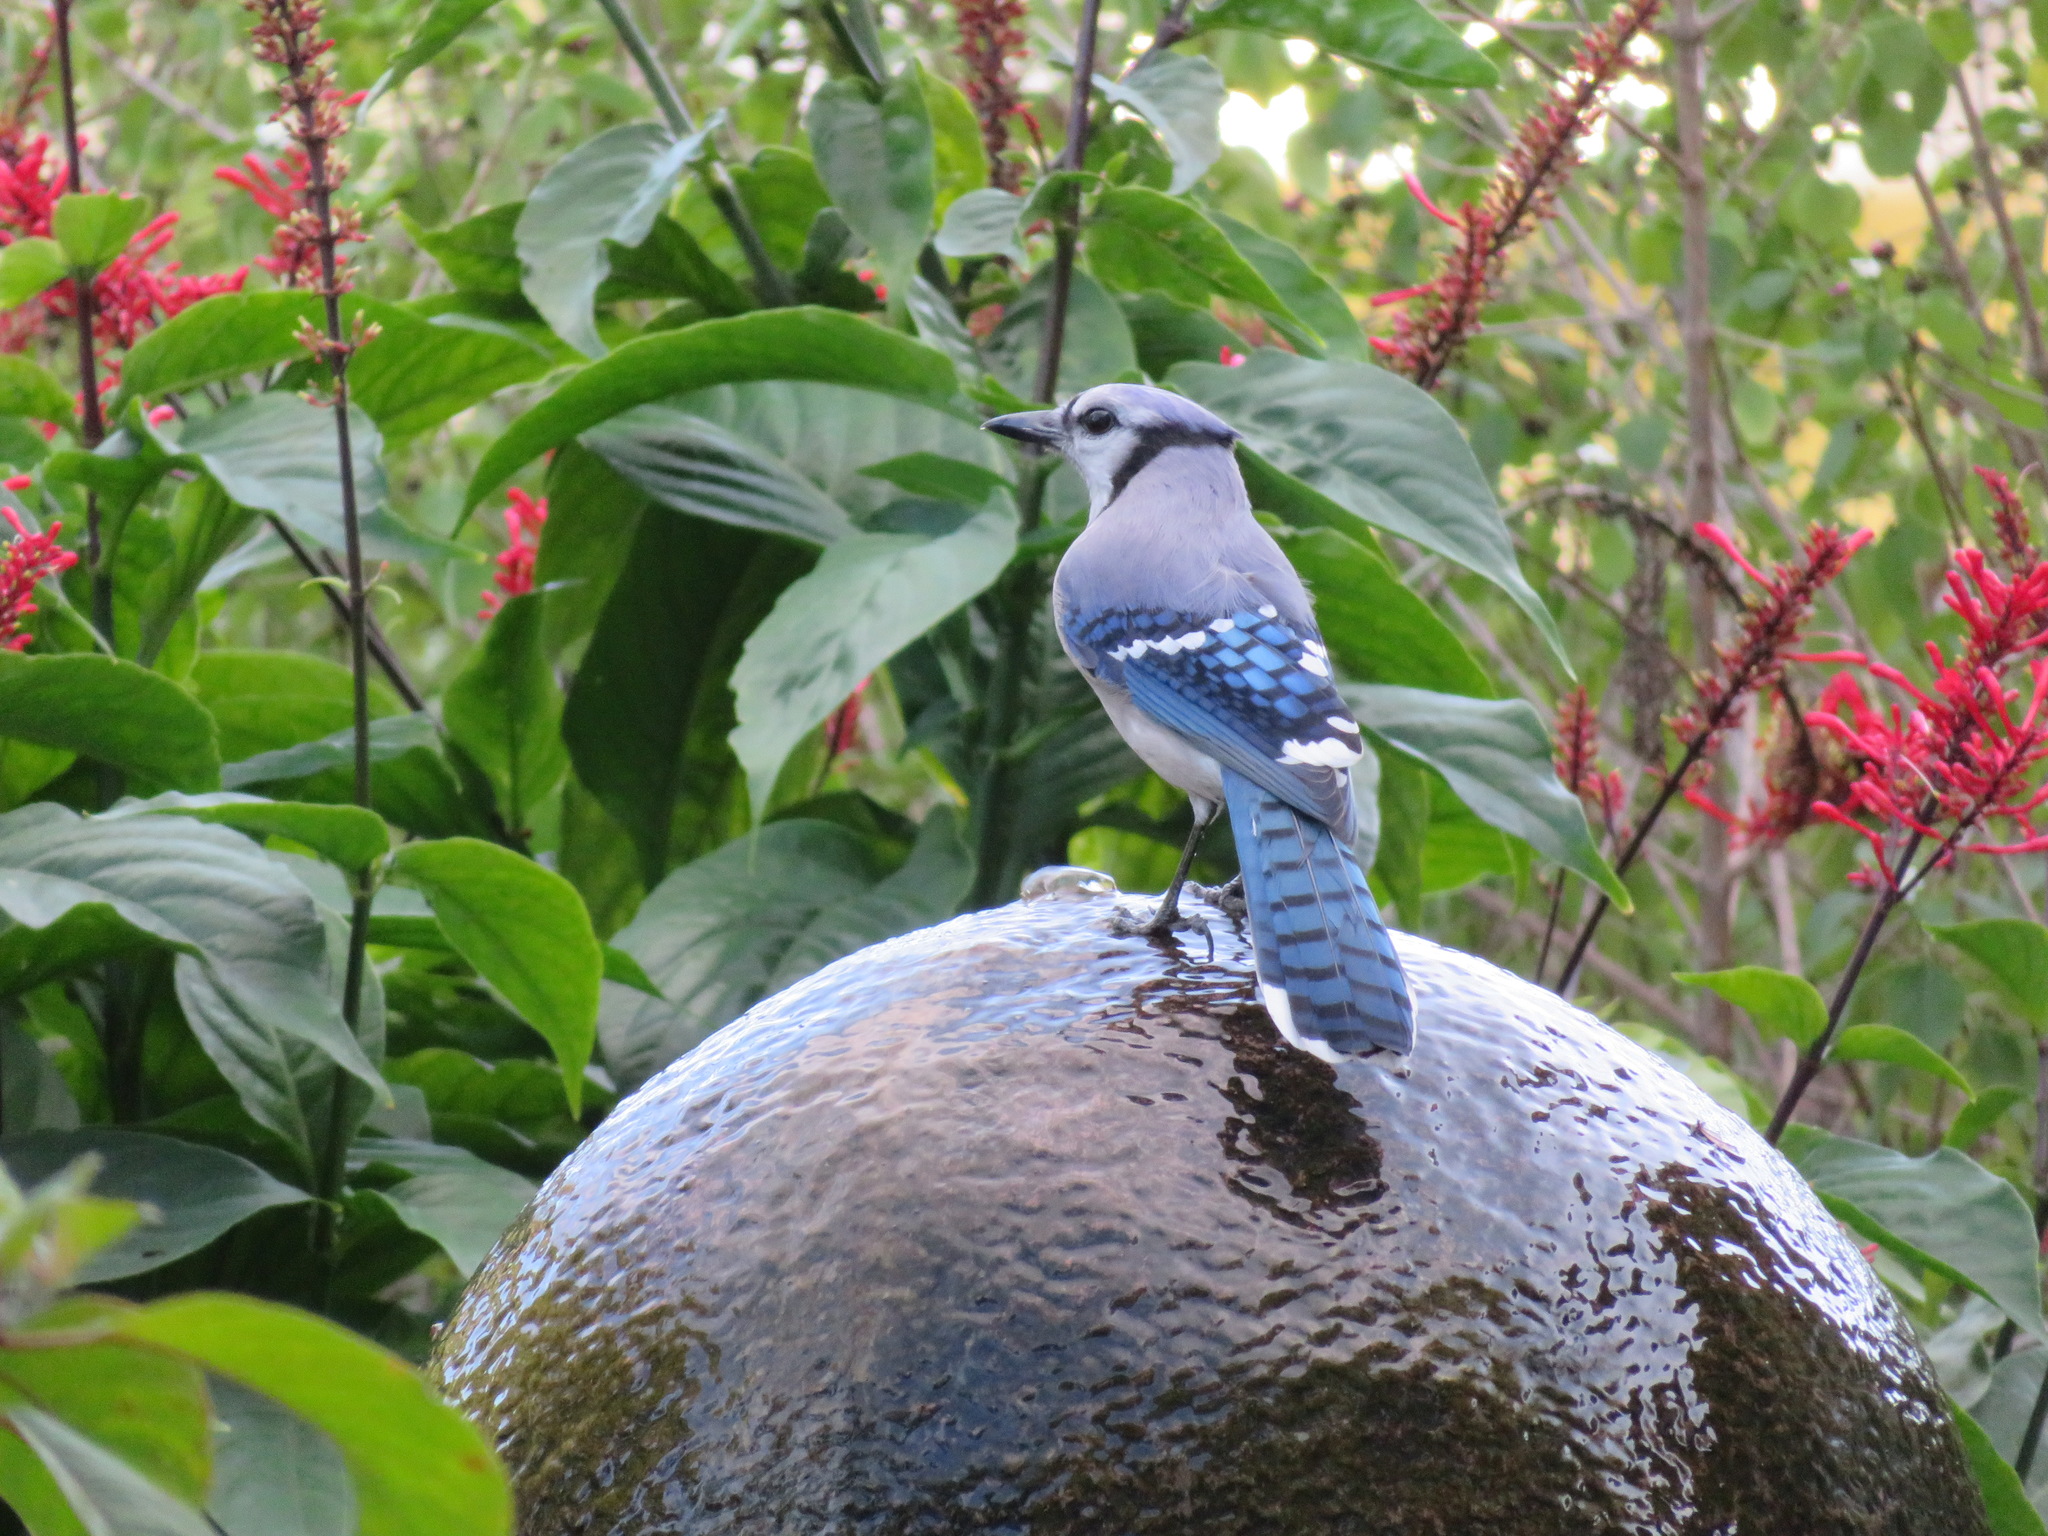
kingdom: Animalia
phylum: Chordata
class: Aves
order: Passeriformes
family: Corvidae
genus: Cyanocitta
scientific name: Cyanocitta cristata
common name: Blue jay
